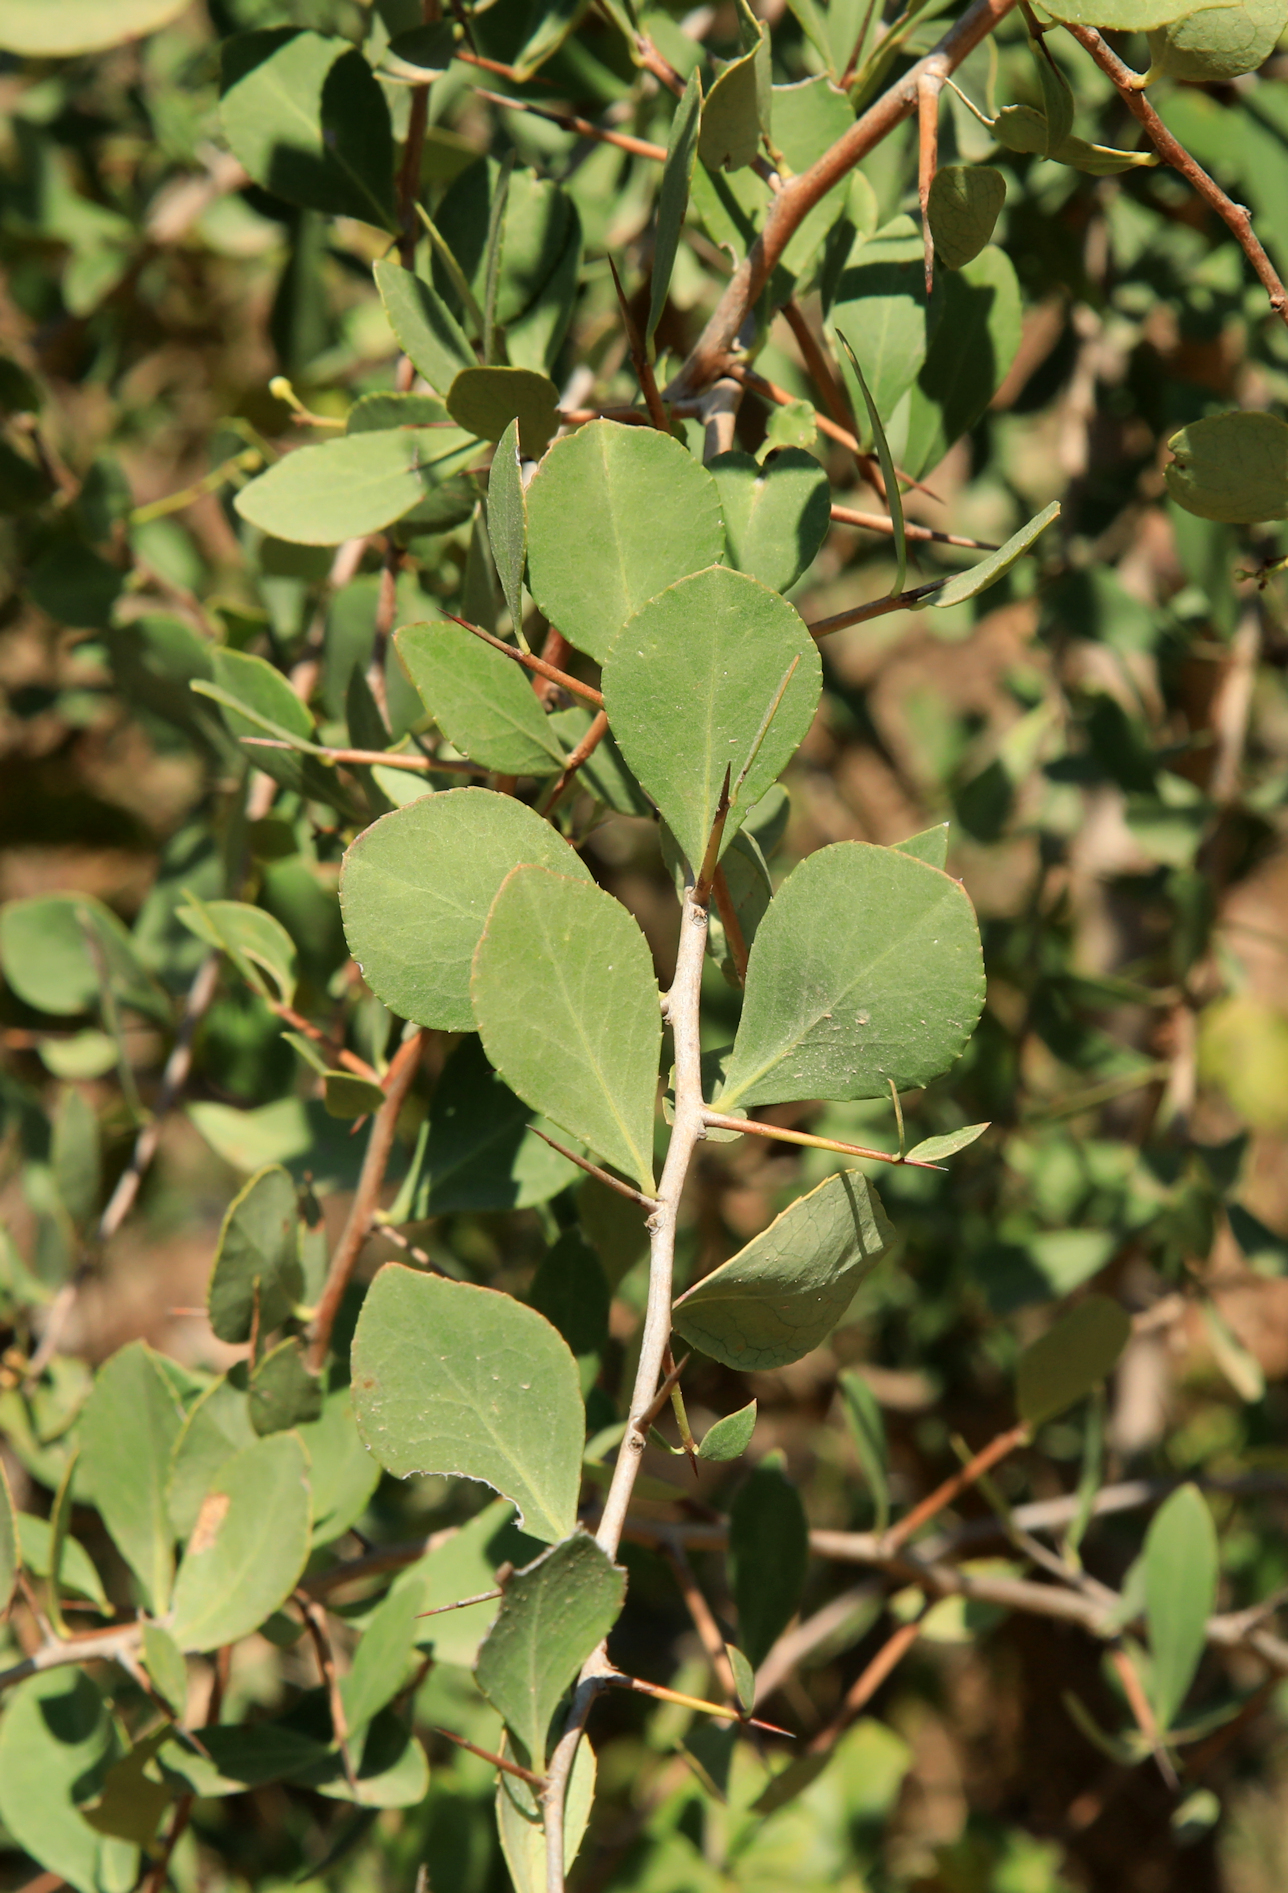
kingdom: Plantae
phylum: Tracheophyta
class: Magnoliopsida
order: Celastrales
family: Celastraceae
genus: Gymnosporia
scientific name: Gymnosporia glaucophylla
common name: Blue spike-thorn
